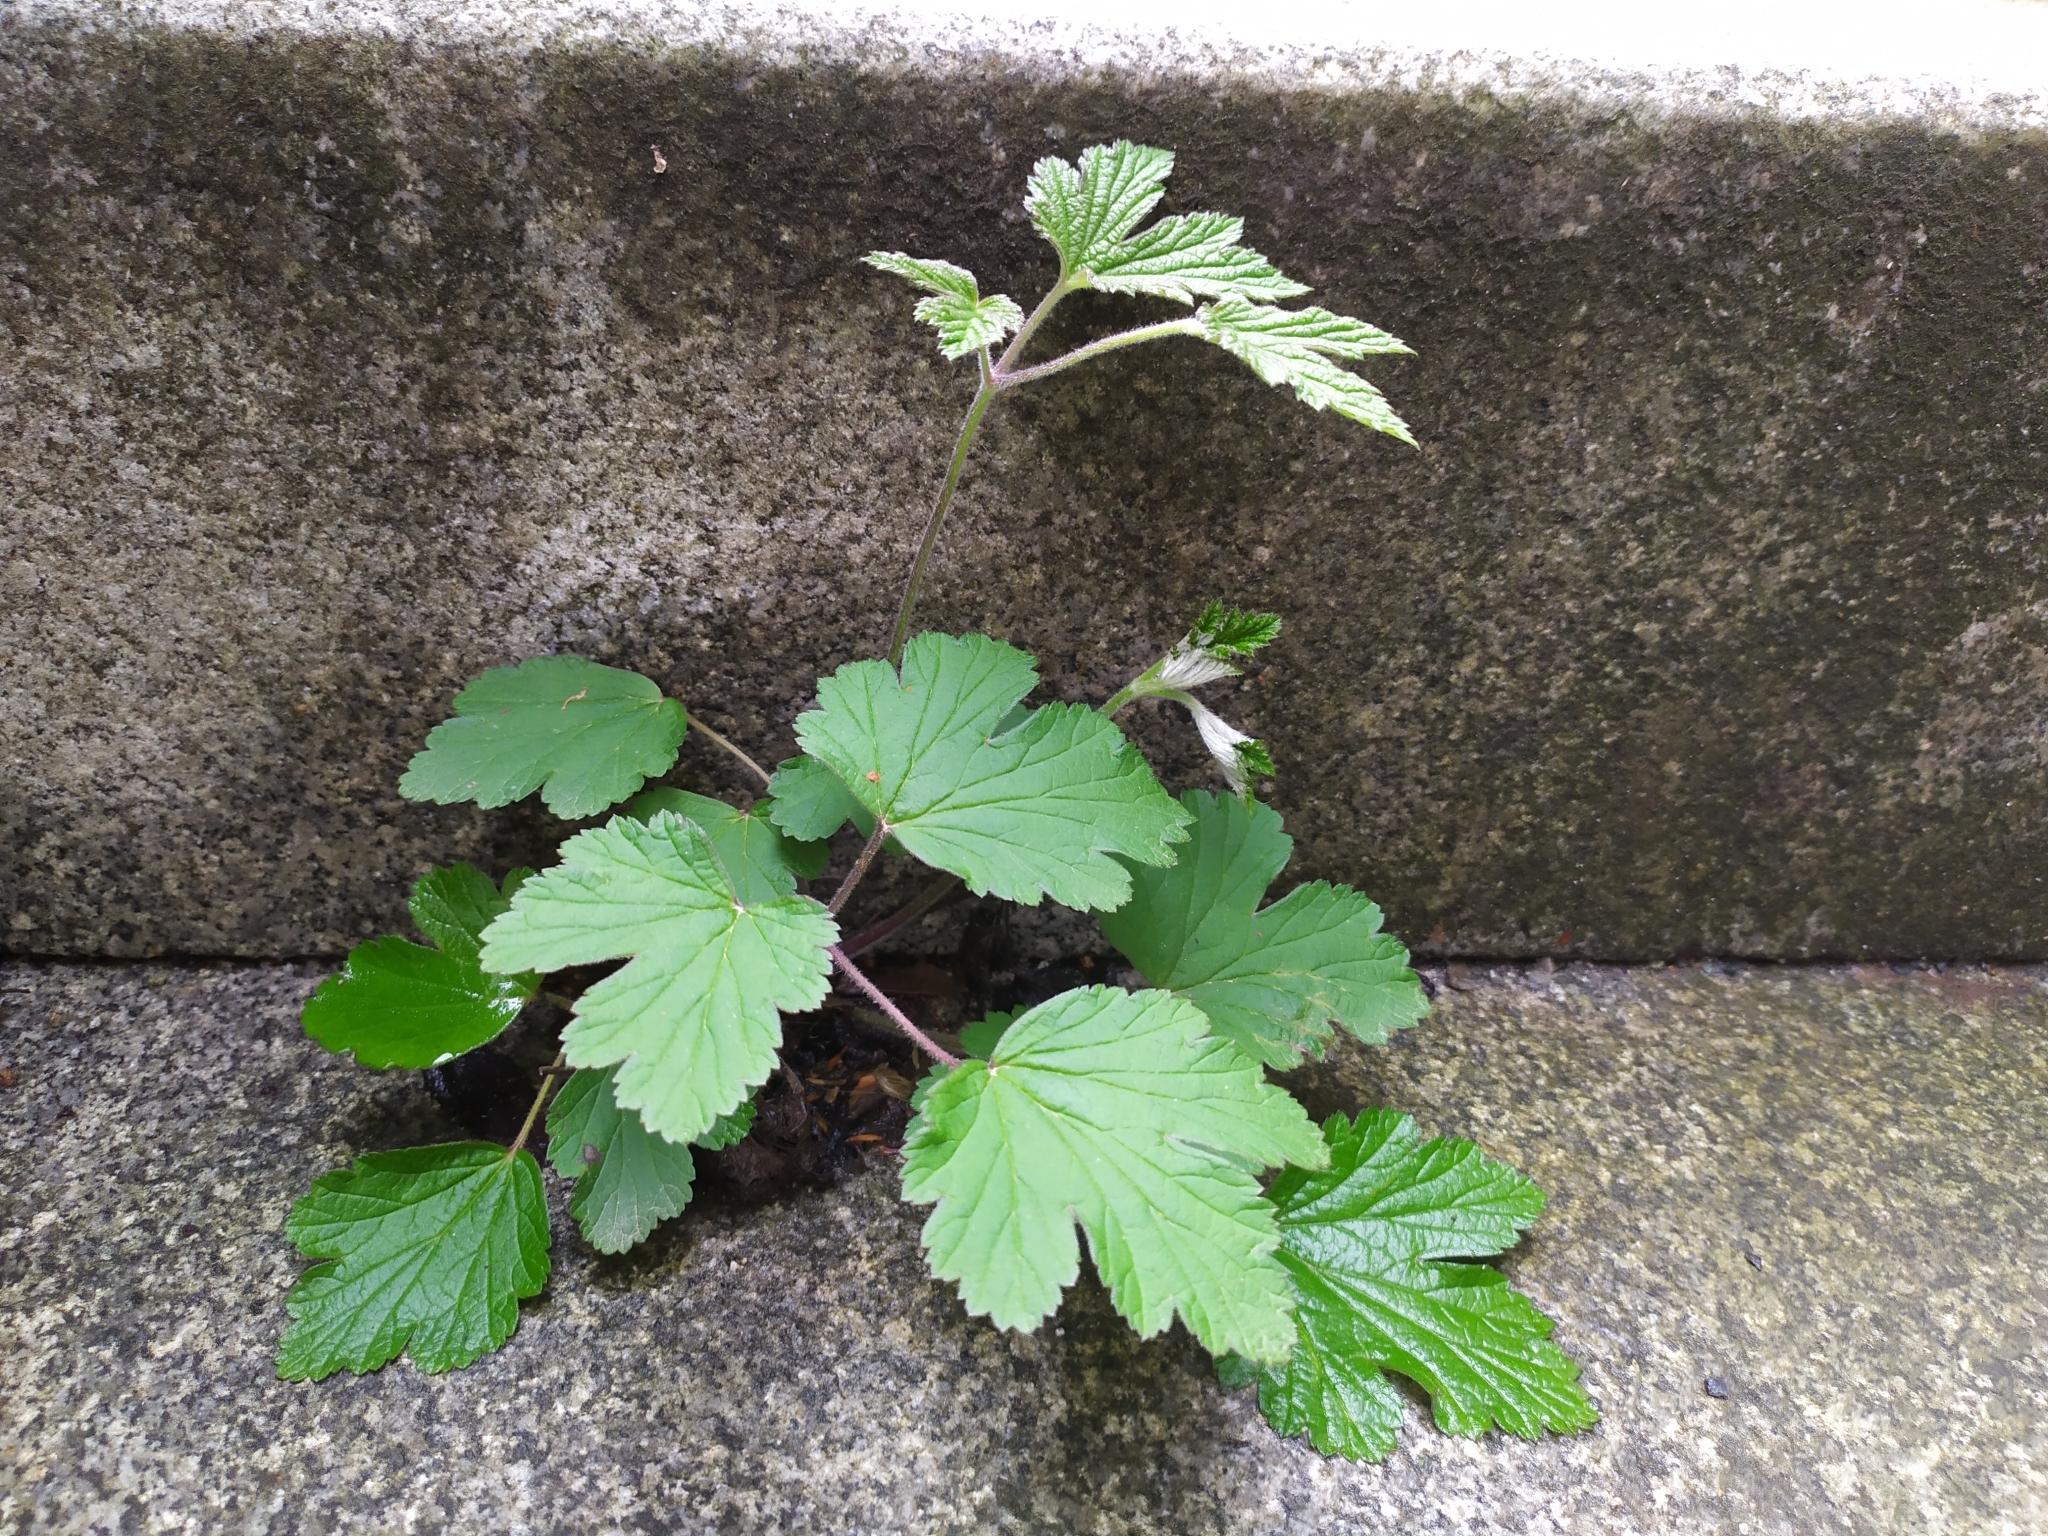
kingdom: Plantae
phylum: Tracheophyta
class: Magnoliopsida
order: Ranunculales
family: Ranunculaceae
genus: Eriocapitella
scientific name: Eriocapitella hupehensis
